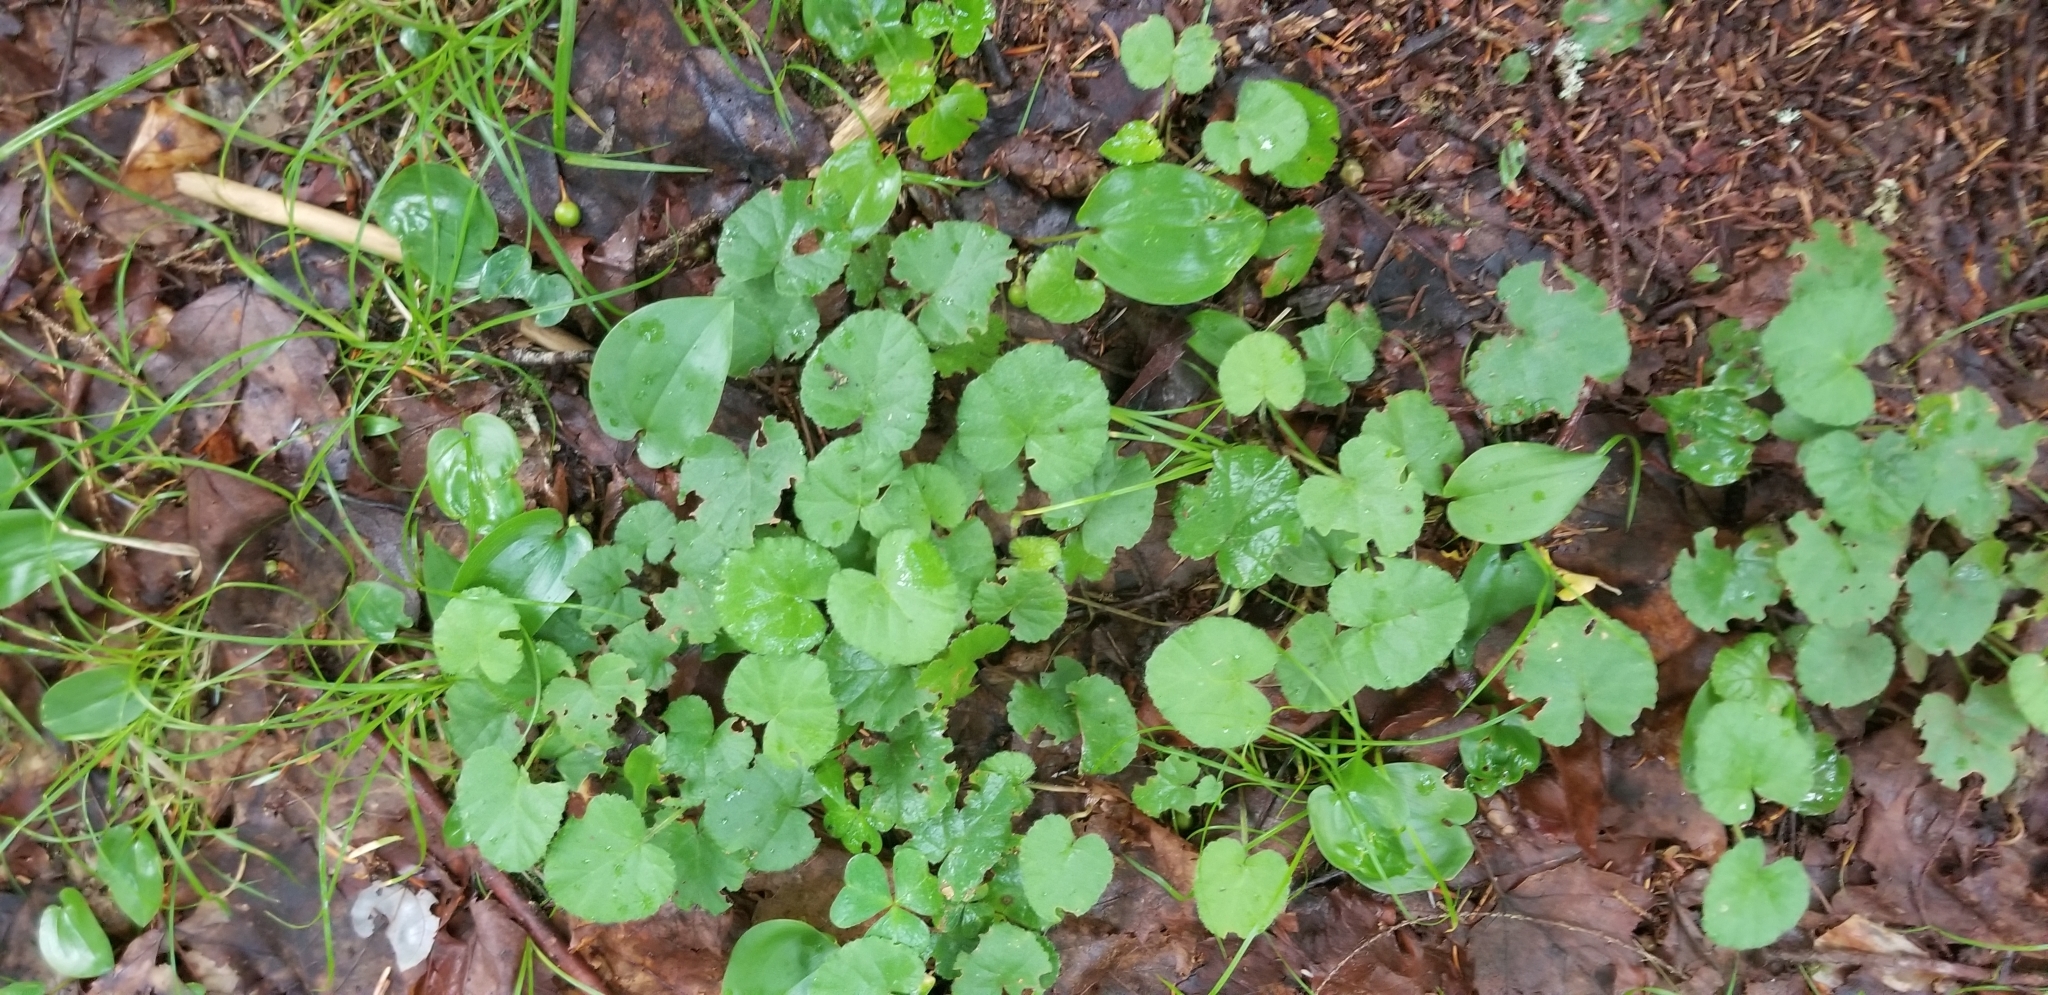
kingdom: Plantae
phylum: Tracheophyta
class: Magnoliopsida
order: Rosales
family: Rosaceae
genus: Dalibarda
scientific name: Dalibarda repens
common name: Dewdrop
